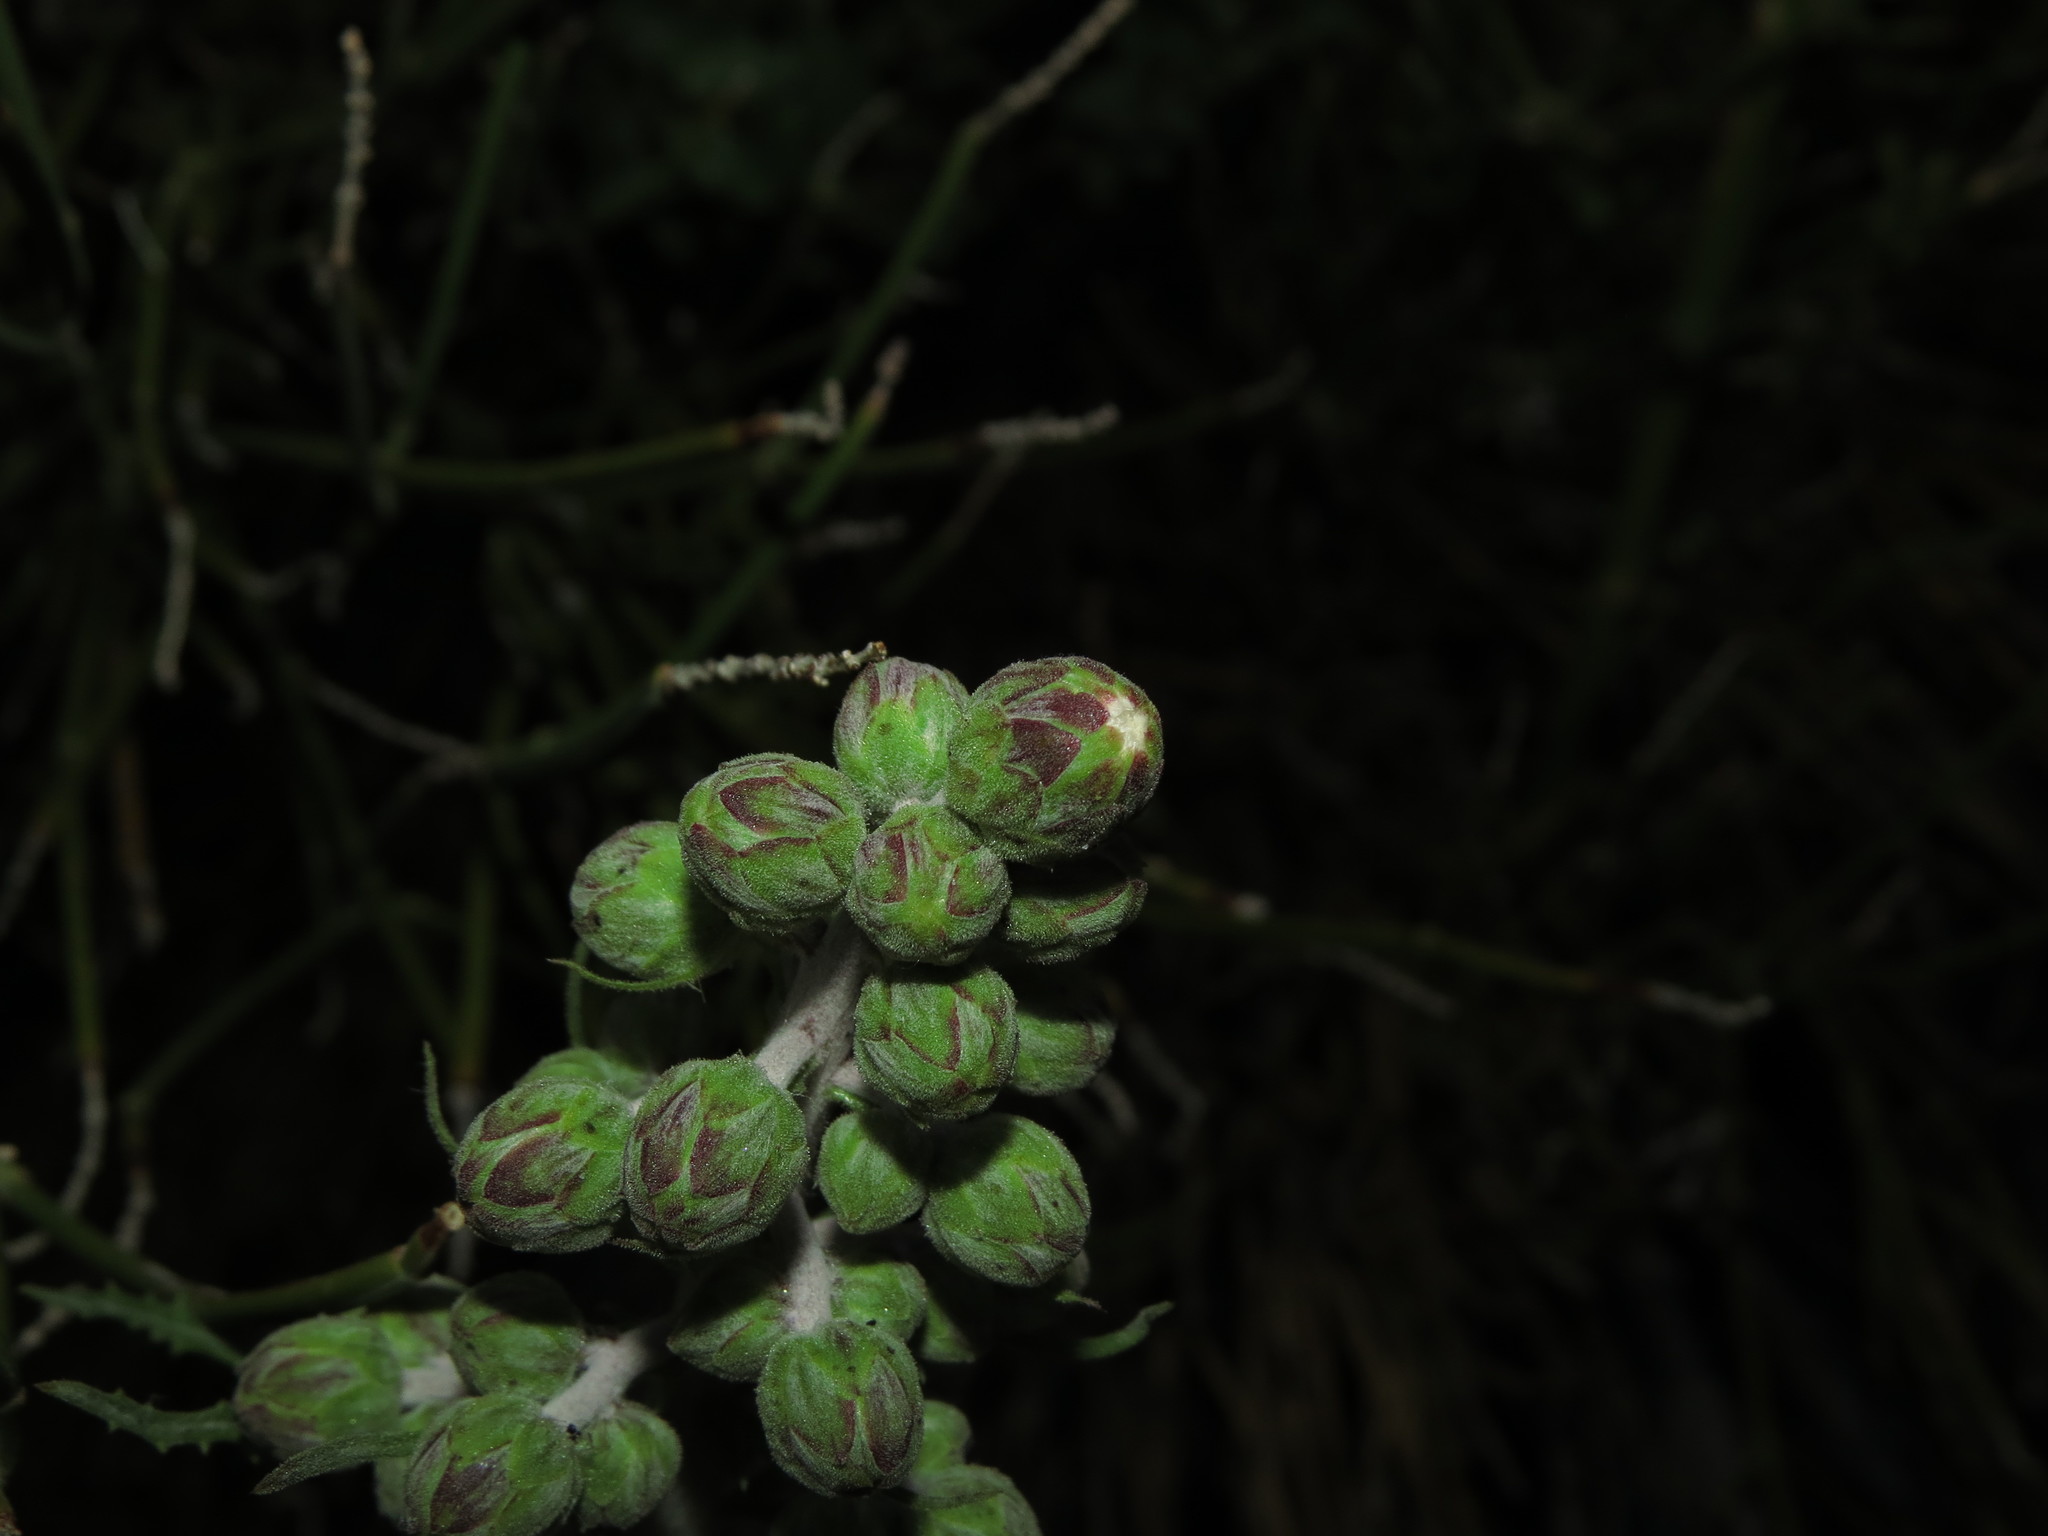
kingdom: Plantae
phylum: Tracheophyta
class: Magnoliopsida
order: Asterales
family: Asteraceae
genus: Leucheria
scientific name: Leucheria floribunda
